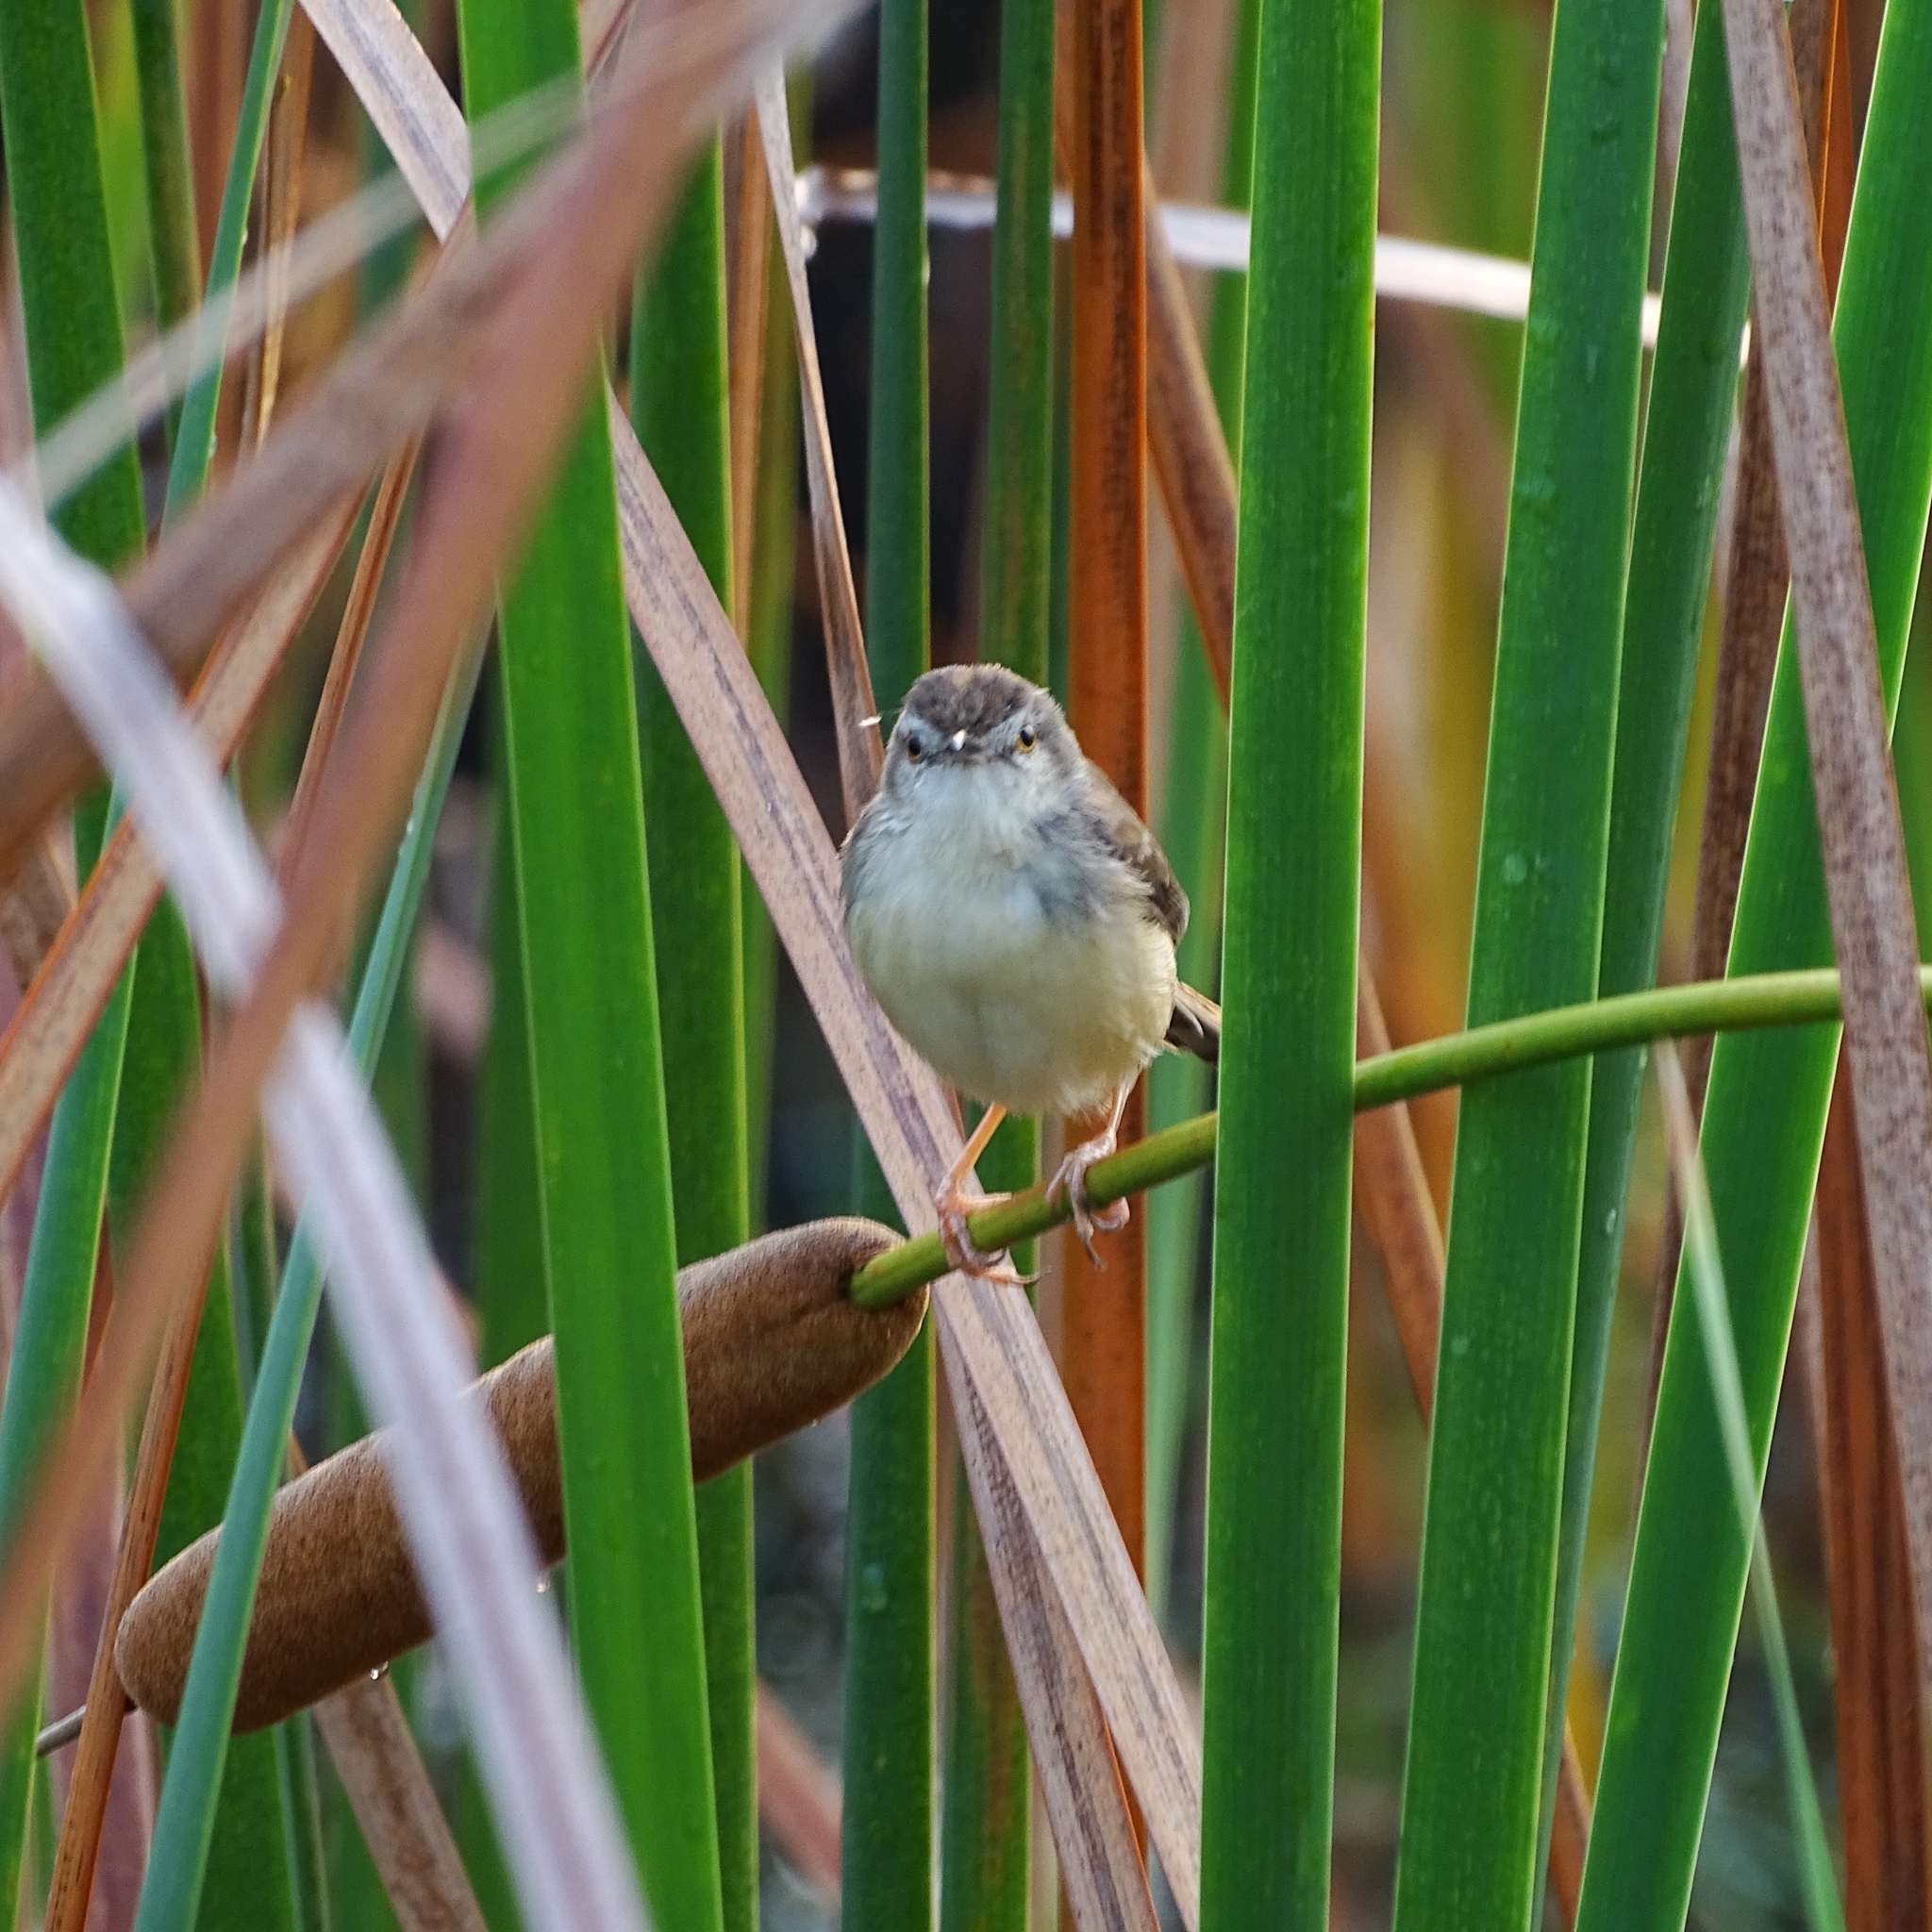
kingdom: Animalia
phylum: Chordata
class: Aves
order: Passeriformes
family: Cisticolidae
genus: Prinia
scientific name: Prinia inornata
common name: Plain prinia
